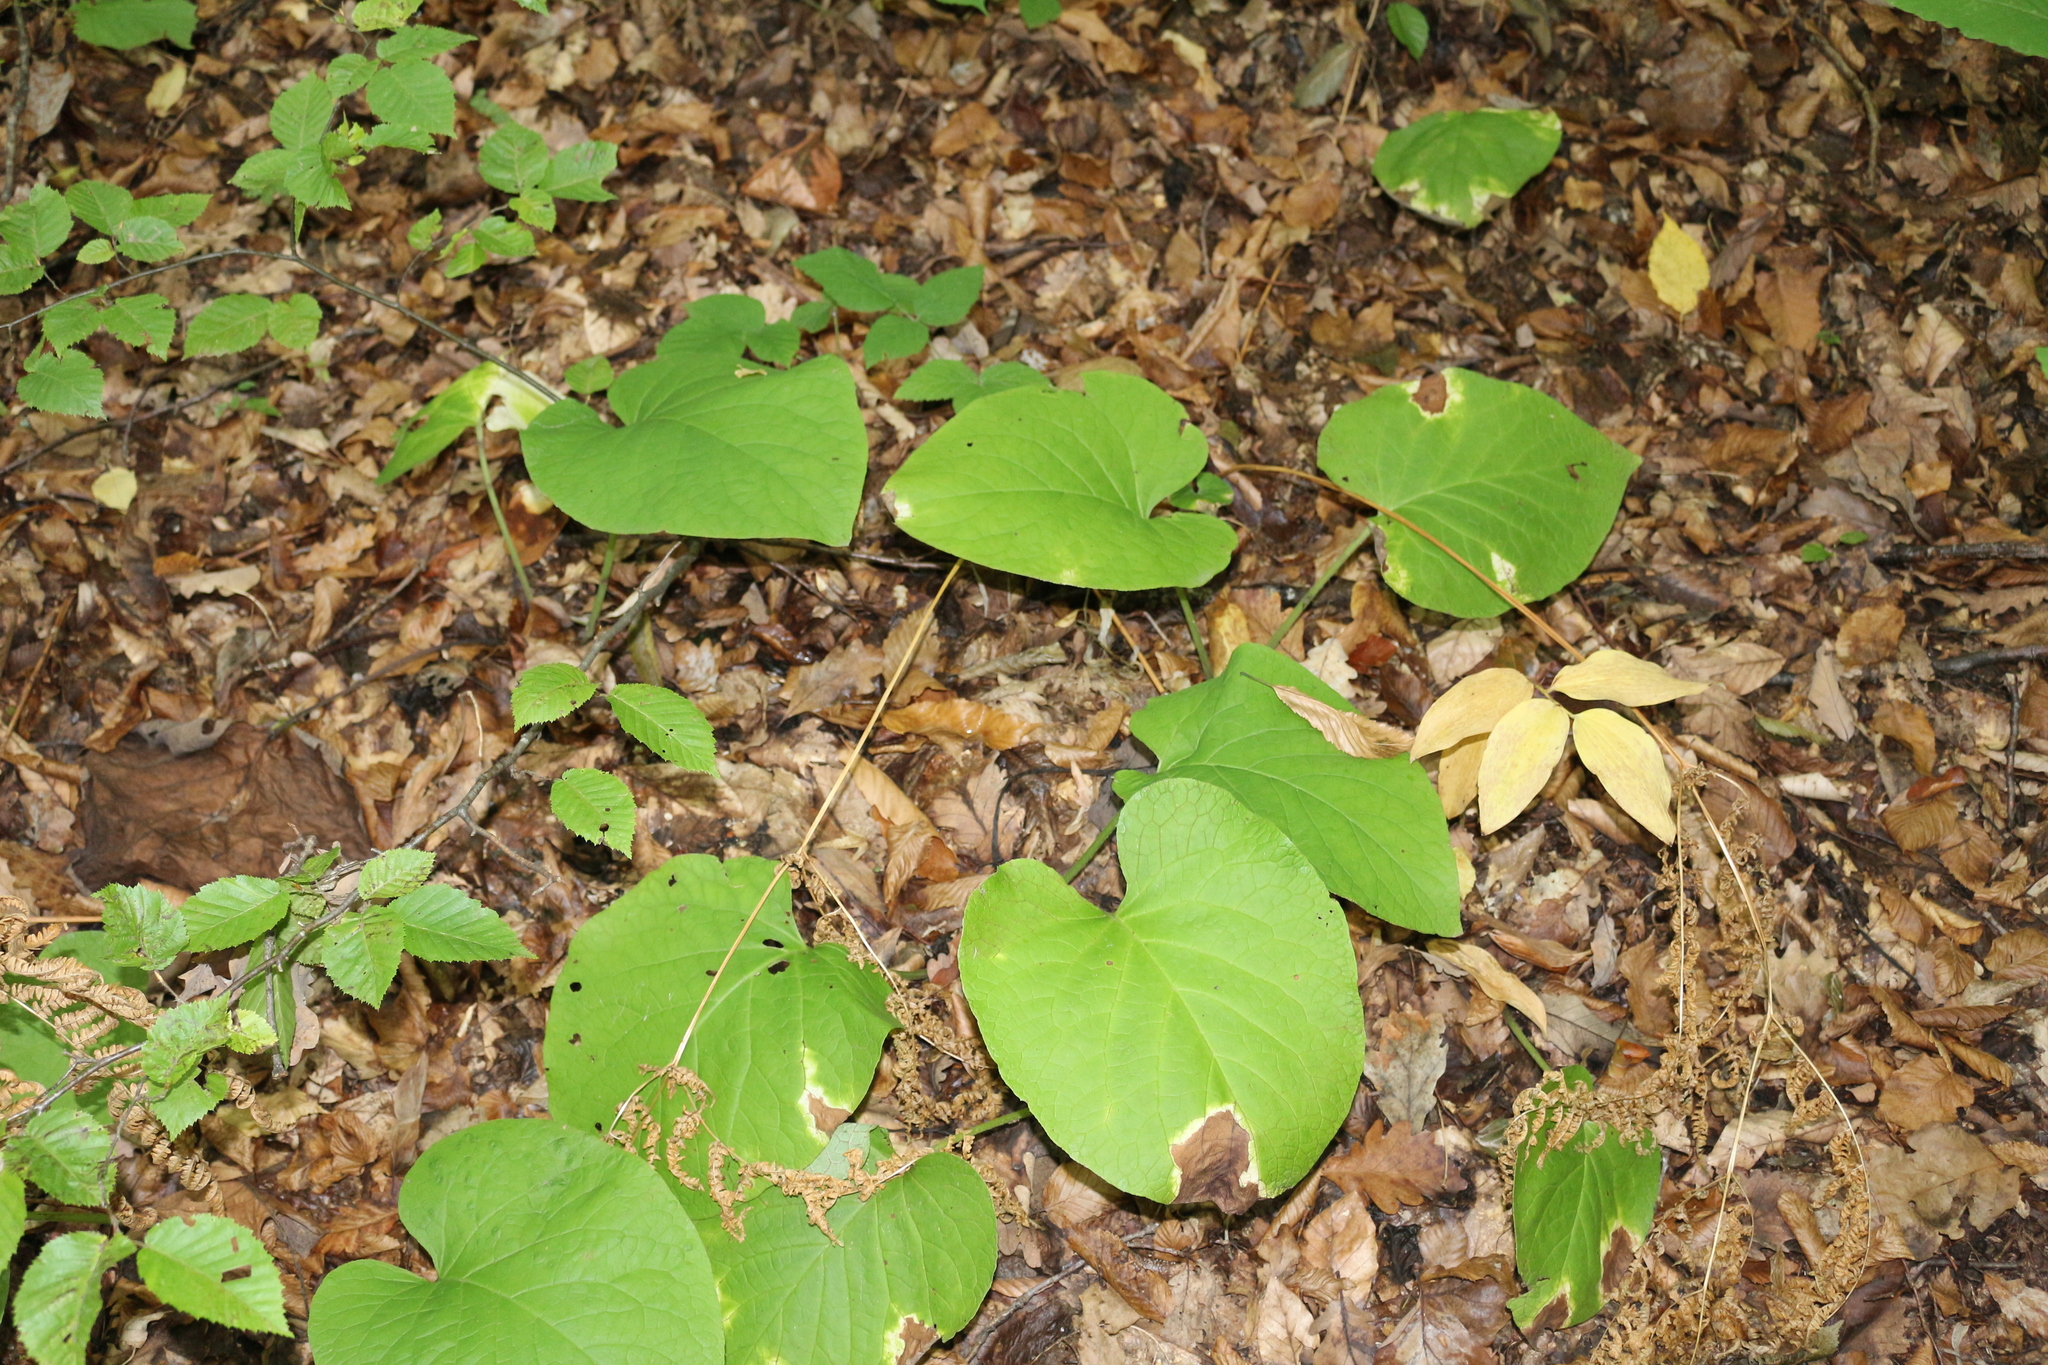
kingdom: Plantae
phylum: Tracheophyta
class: Magnoliopsida
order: Boraginales
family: Boraginaceae
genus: Trachystemon
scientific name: Trachystemon orientale
